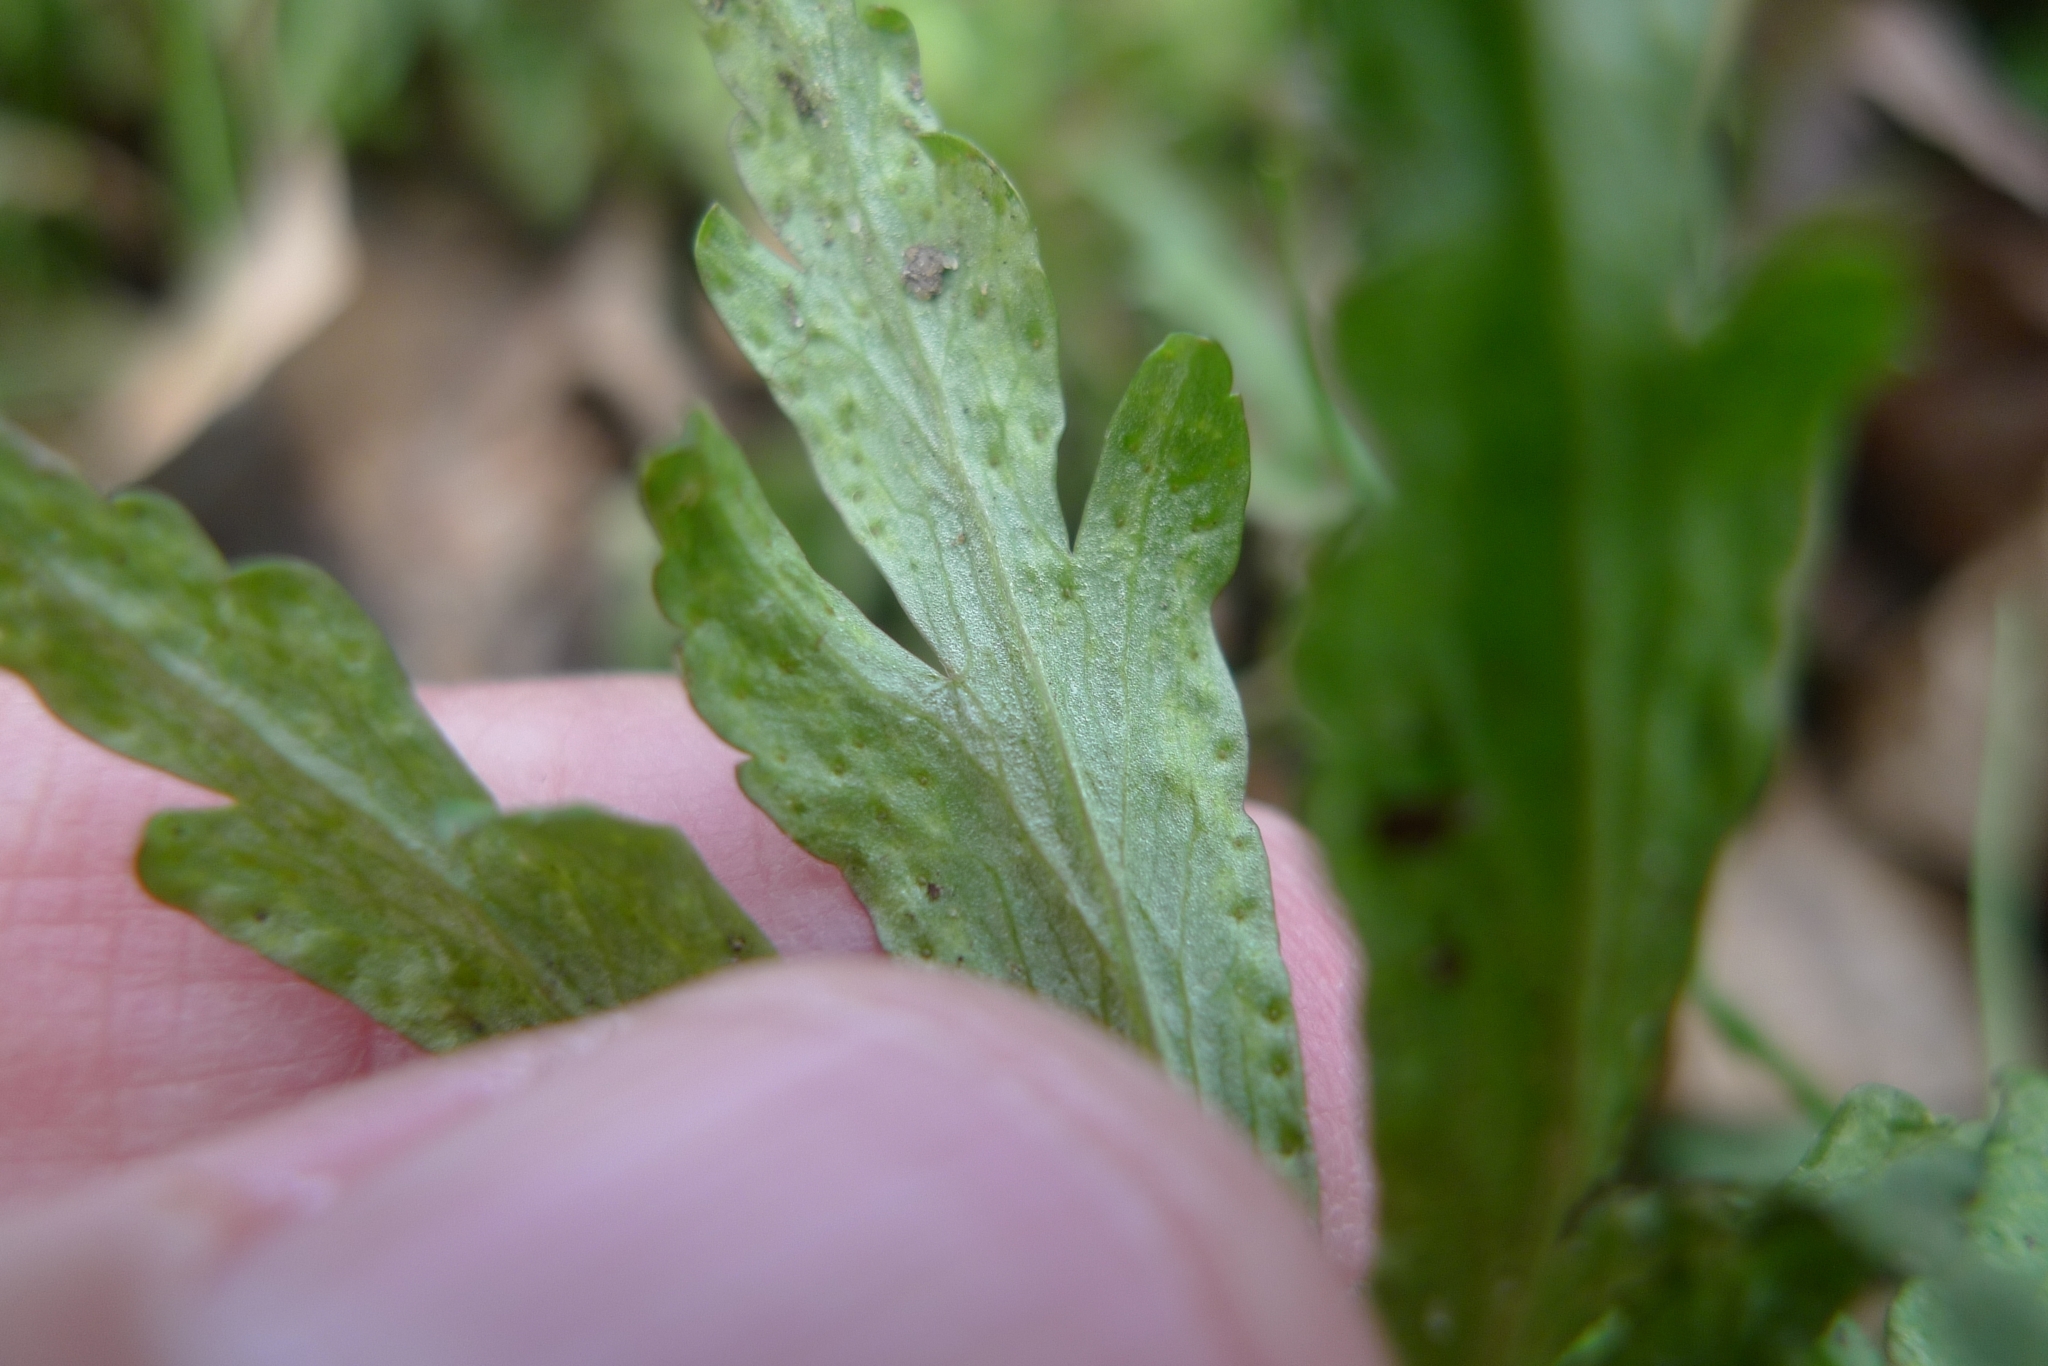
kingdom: Fungi
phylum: Basidiomycota
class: Pucciniomycetes
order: Pucciniales
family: Tranzscheliaceae
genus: Tranzschelia
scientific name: Tranzschelia pruni-spinosae
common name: Blackthorn rust
